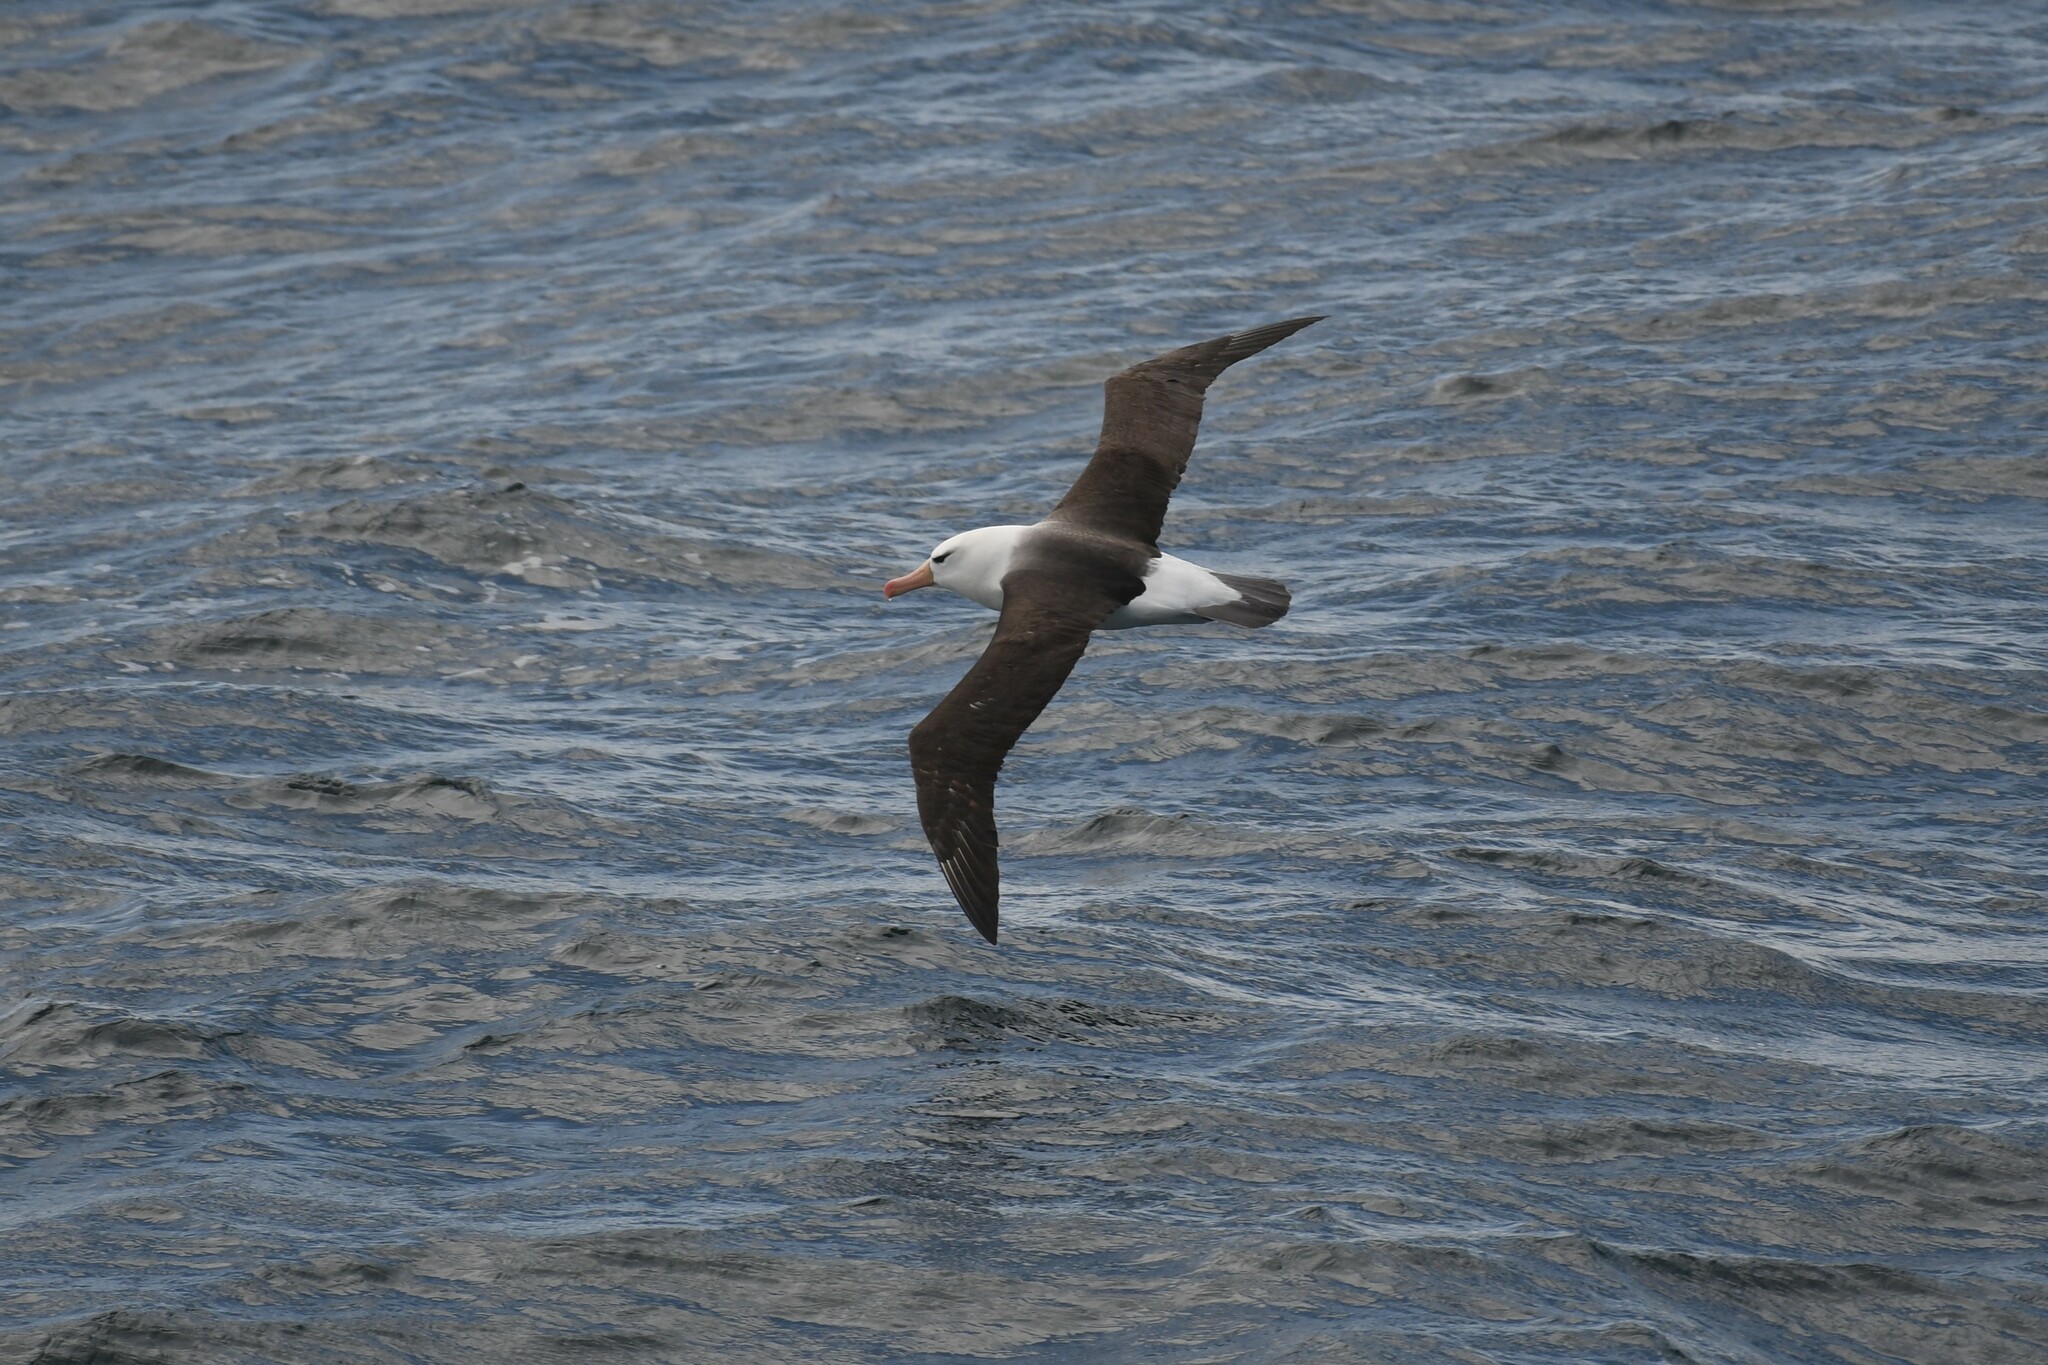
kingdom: Animalia
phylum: Chordata
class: Aves
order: Procellariiformes
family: Diomedeidae
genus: Thalassarche
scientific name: Thalassarche melanophris
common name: Black-browed albatross
